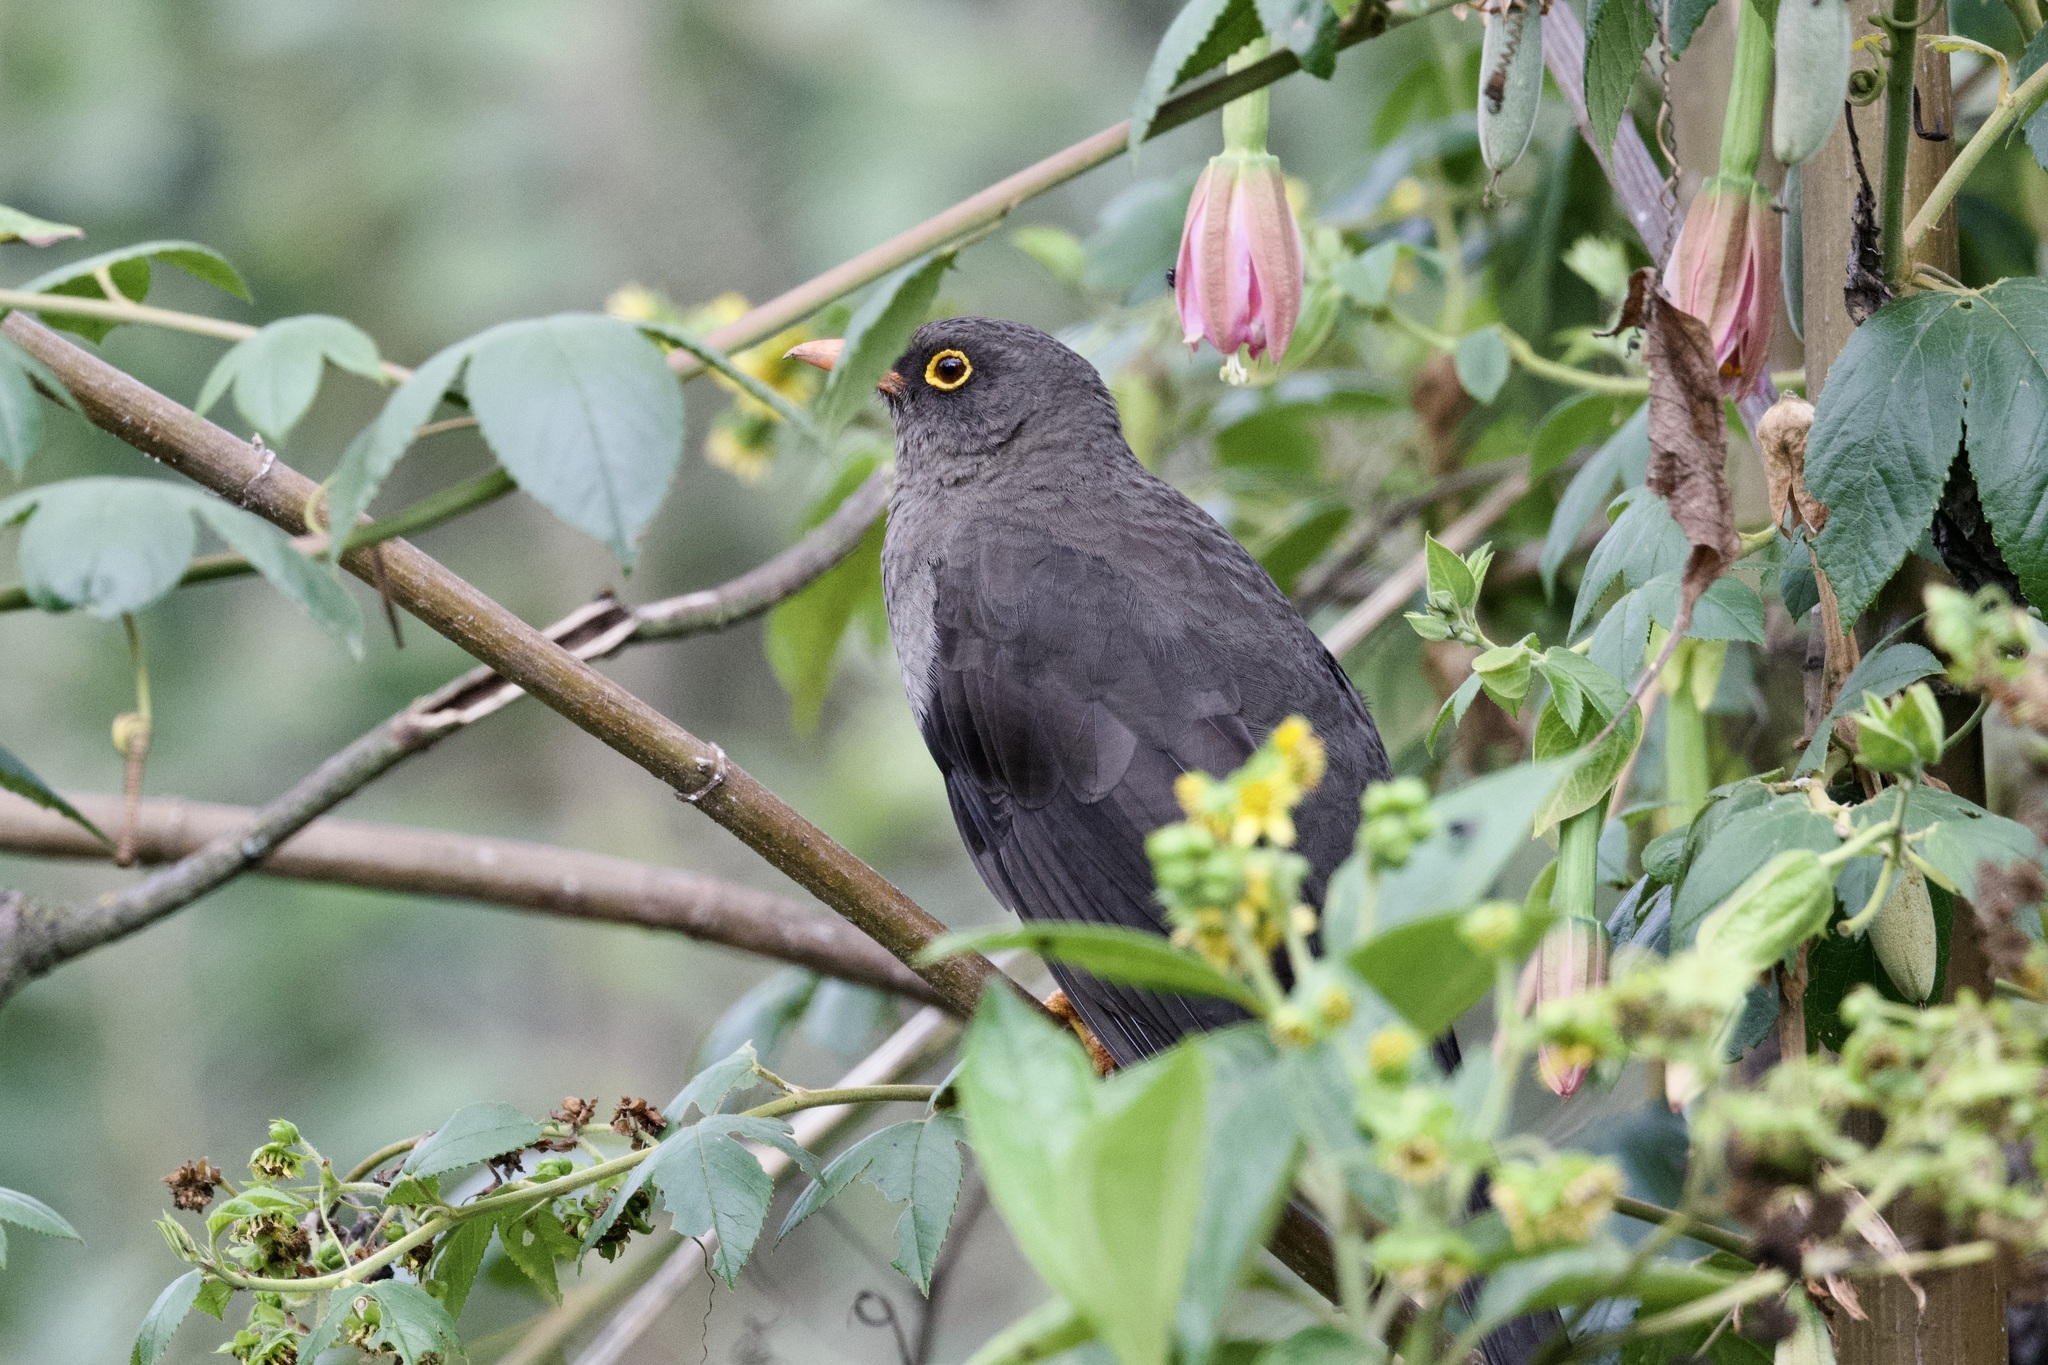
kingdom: Animalia
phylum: Chordata
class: Aves
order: Passeriformes
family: Turdidae
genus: Turdus
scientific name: Turdus fuscater
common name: Great thrush
